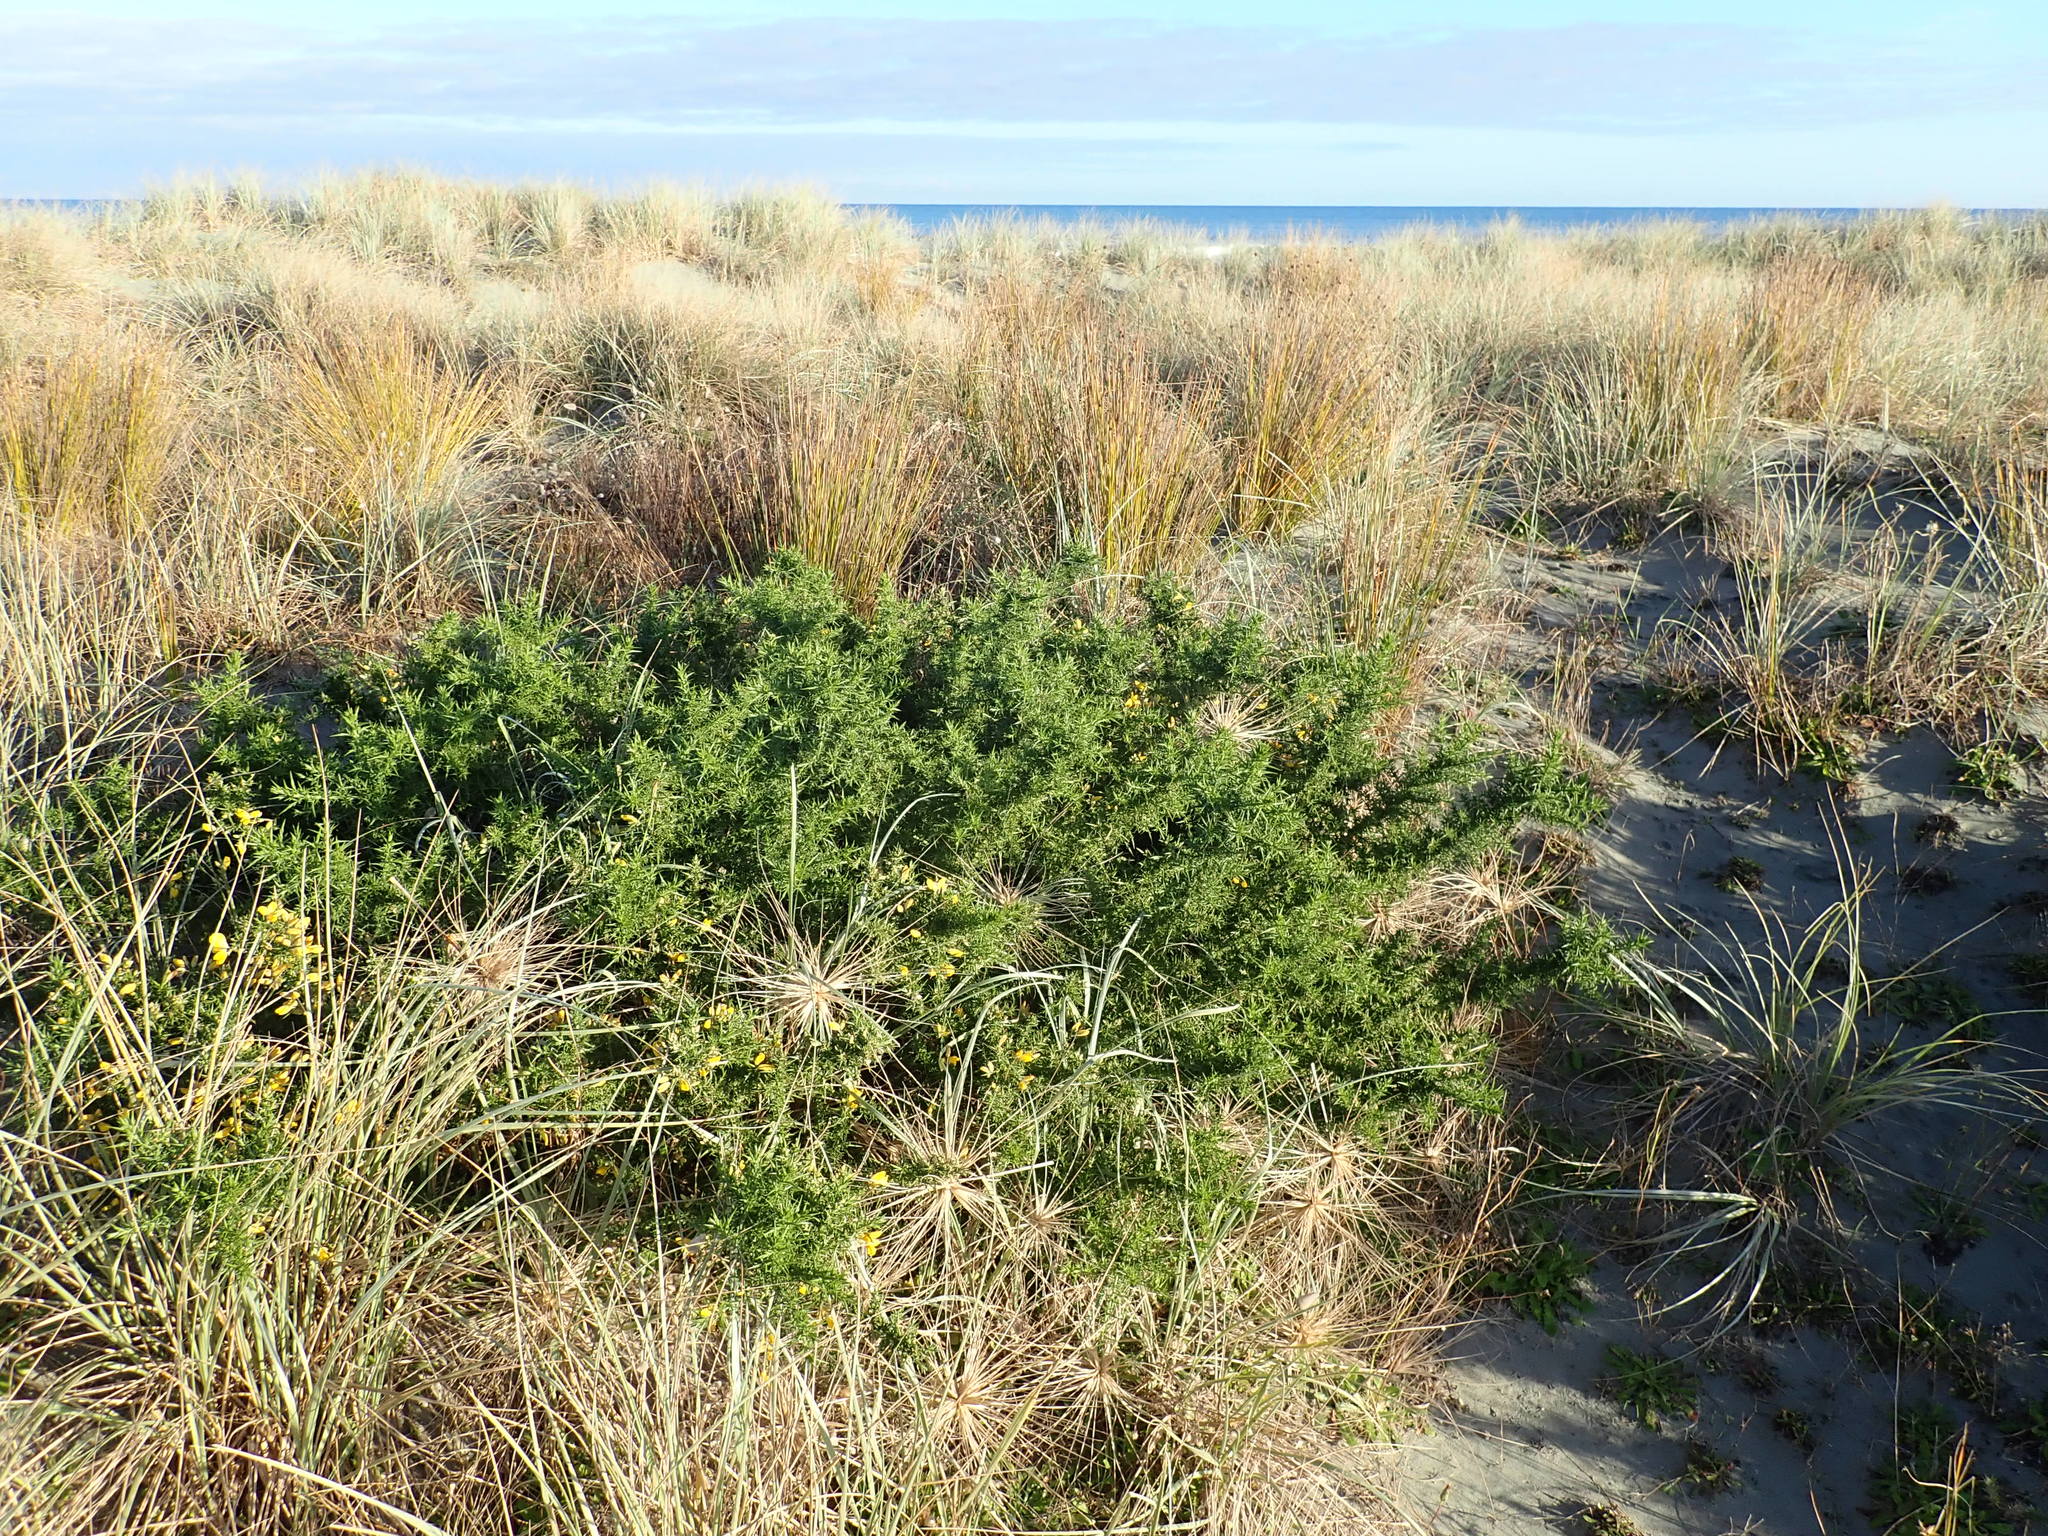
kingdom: Plantae
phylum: Tracheophyta
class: Magnoliopsida
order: Fabales
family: Fabaceae
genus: Ulex
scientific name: Ulex europaeus
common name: Common gorse
